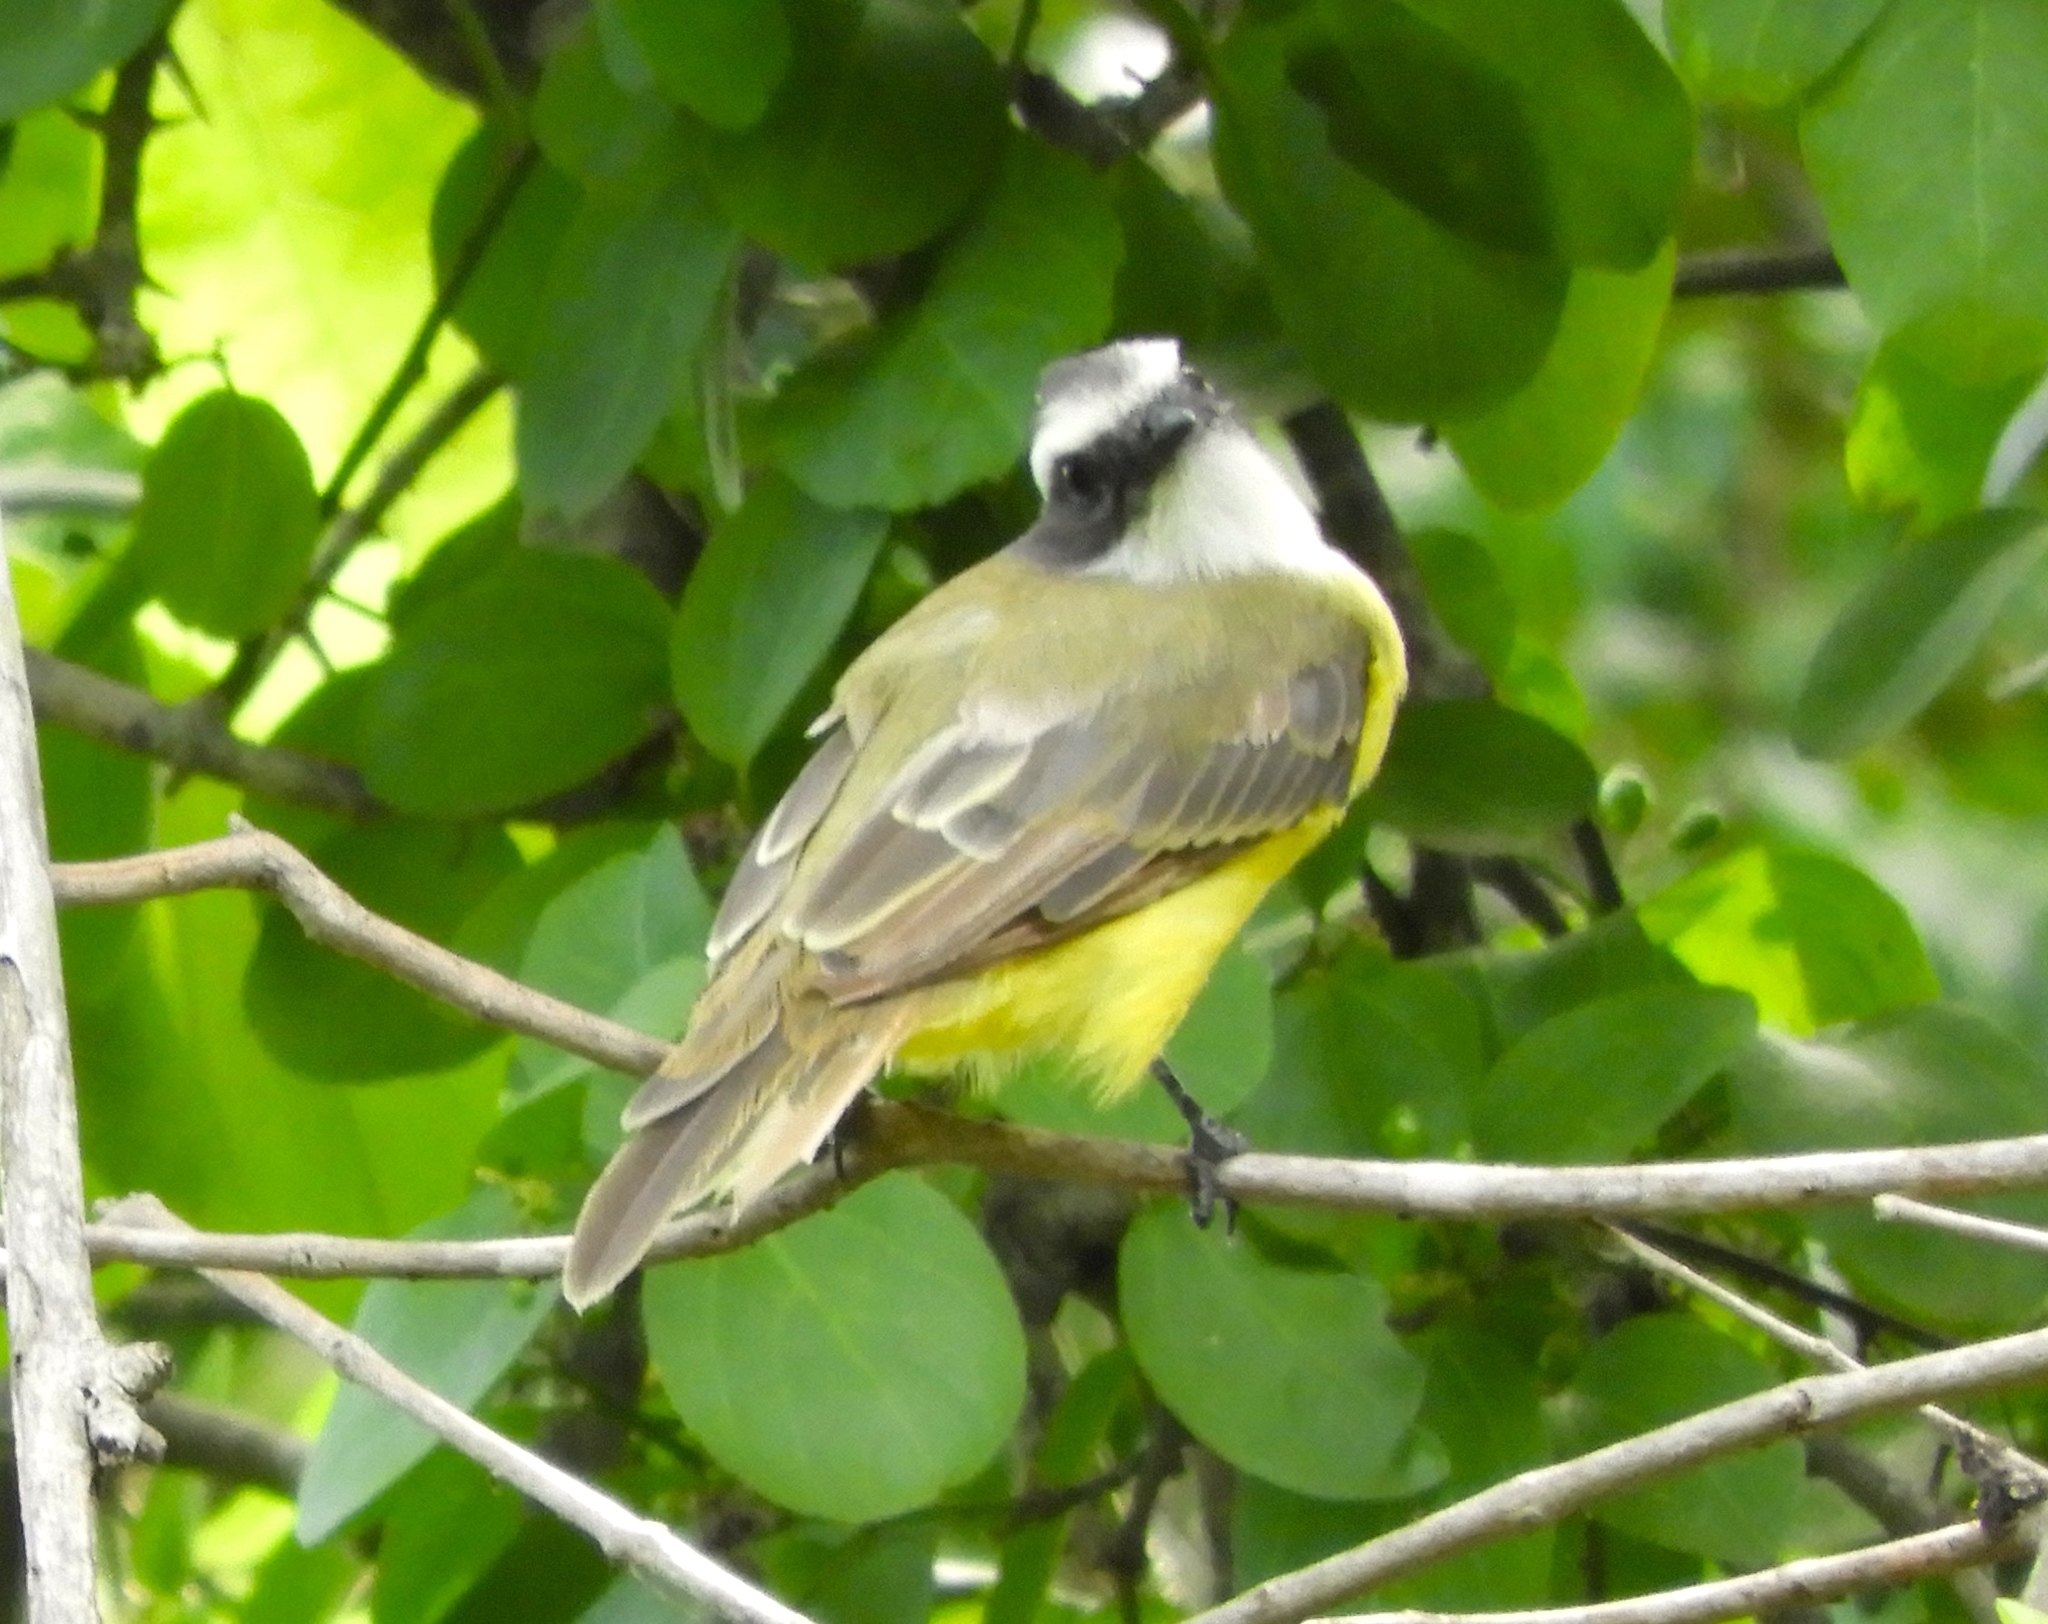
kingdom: Animalia
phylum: Chordata
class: Aves
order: Passeriformes
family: Tyrannidae
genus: Myiozetetes
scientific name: Myiozetetes similis
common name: Social flycatcher
